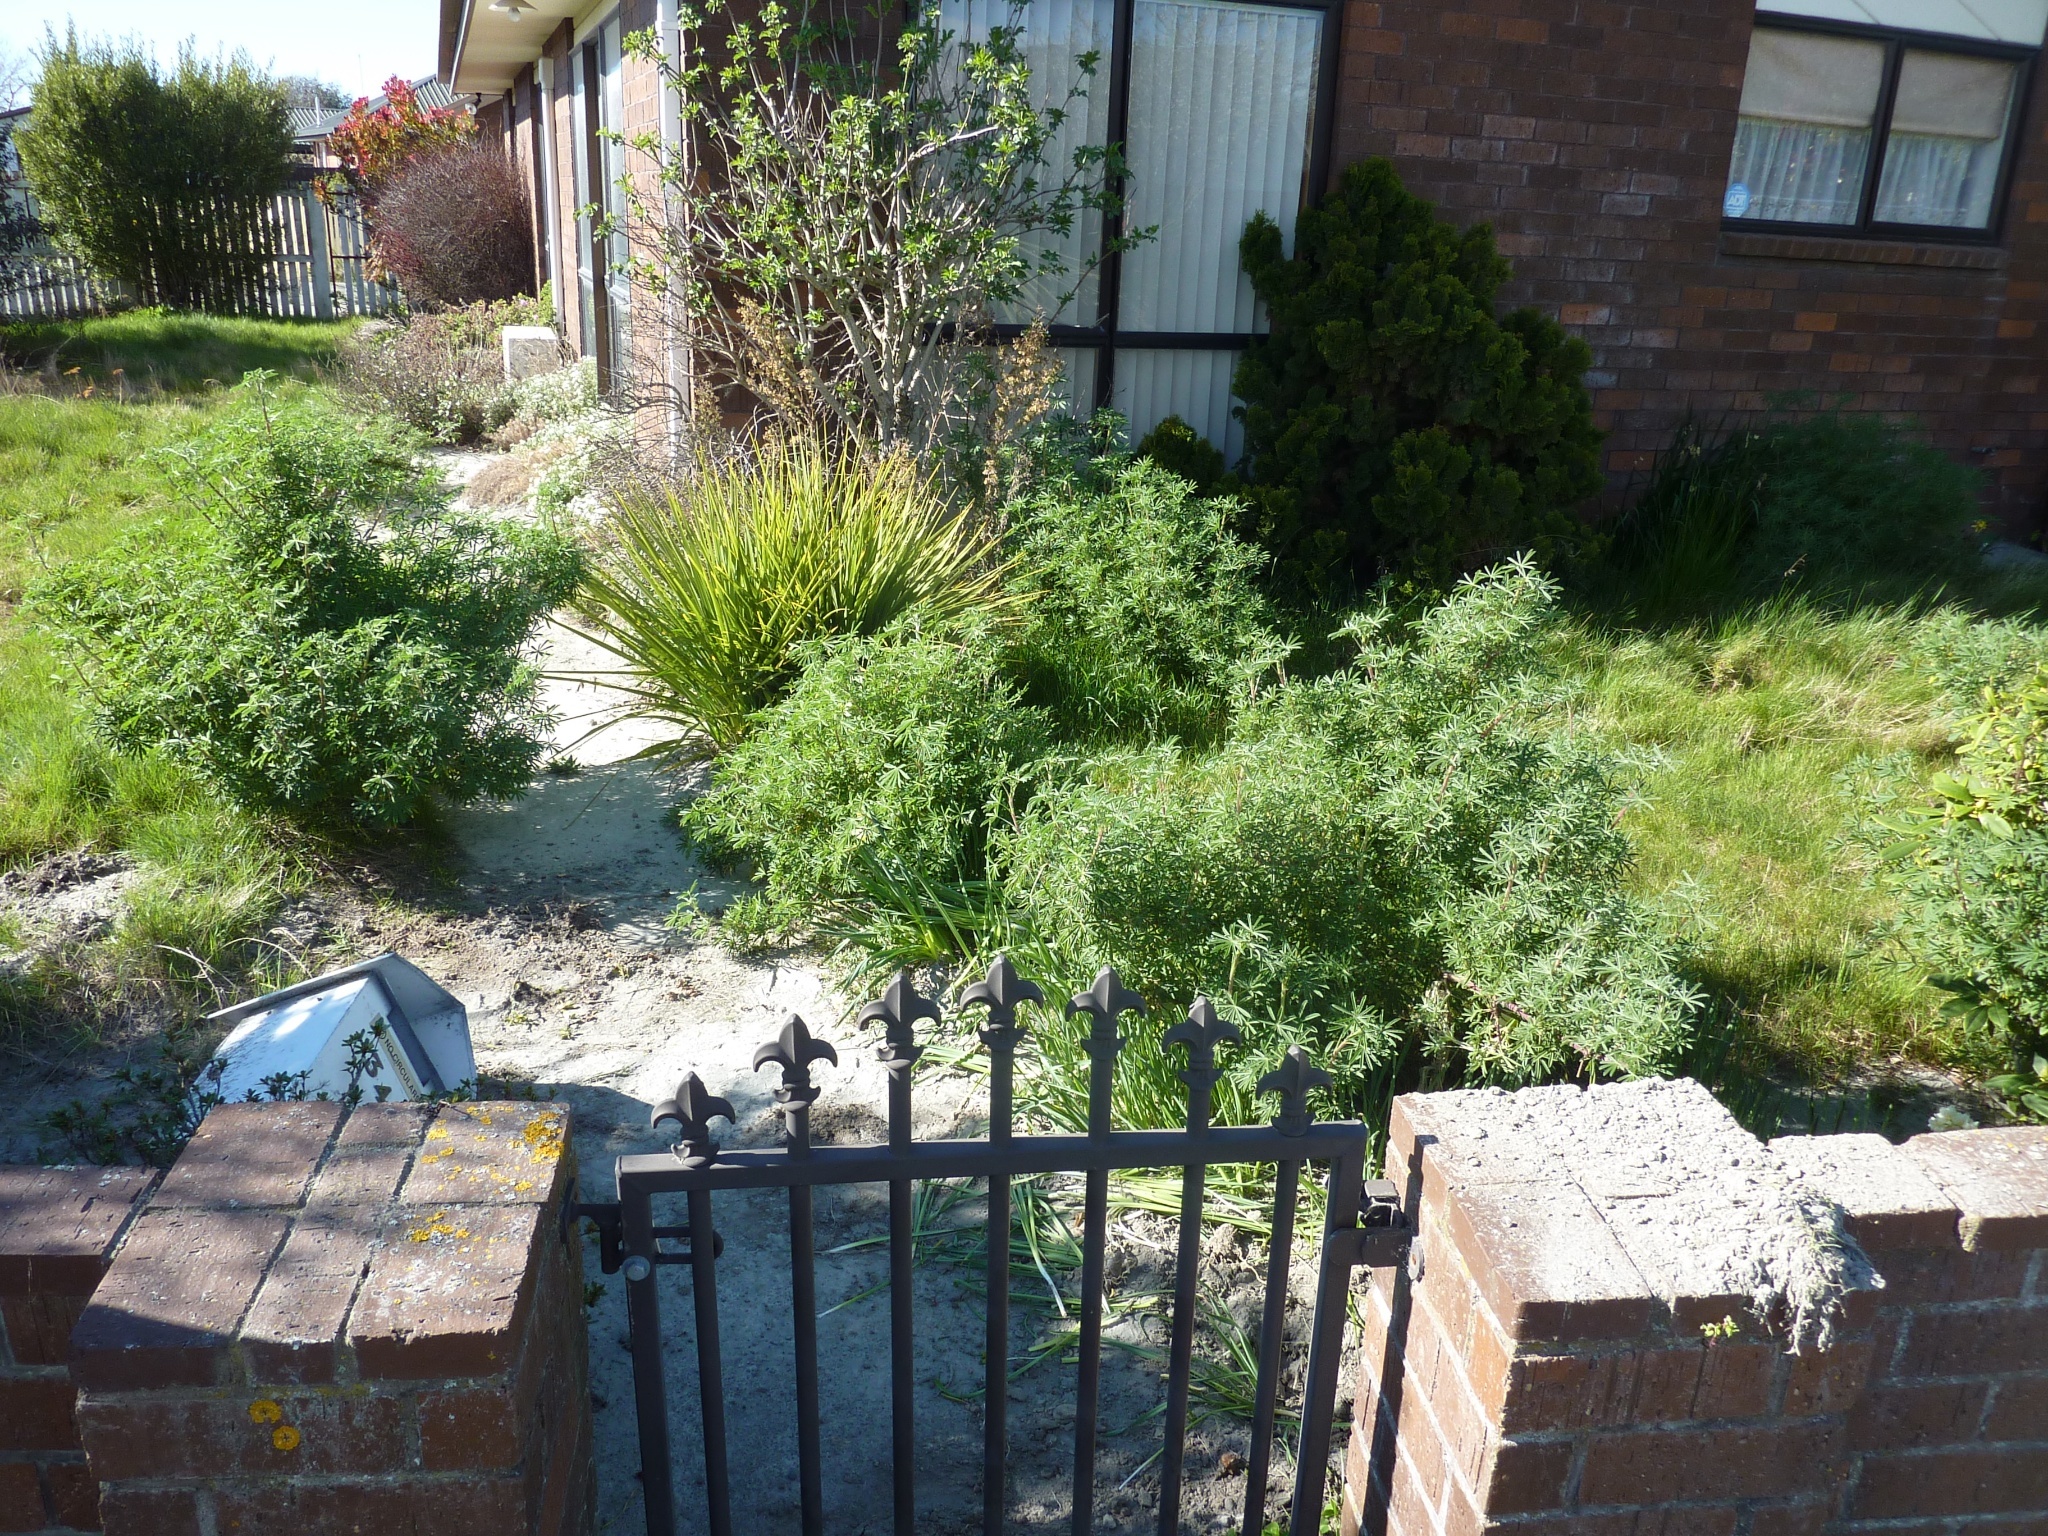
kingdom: Plantae
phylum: Tracheophyta
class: Magnoliopsida
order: Fabales
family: Fabaceae
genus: Lupinus
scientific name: Lupinus arboreus
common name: Yellow bush lupine
